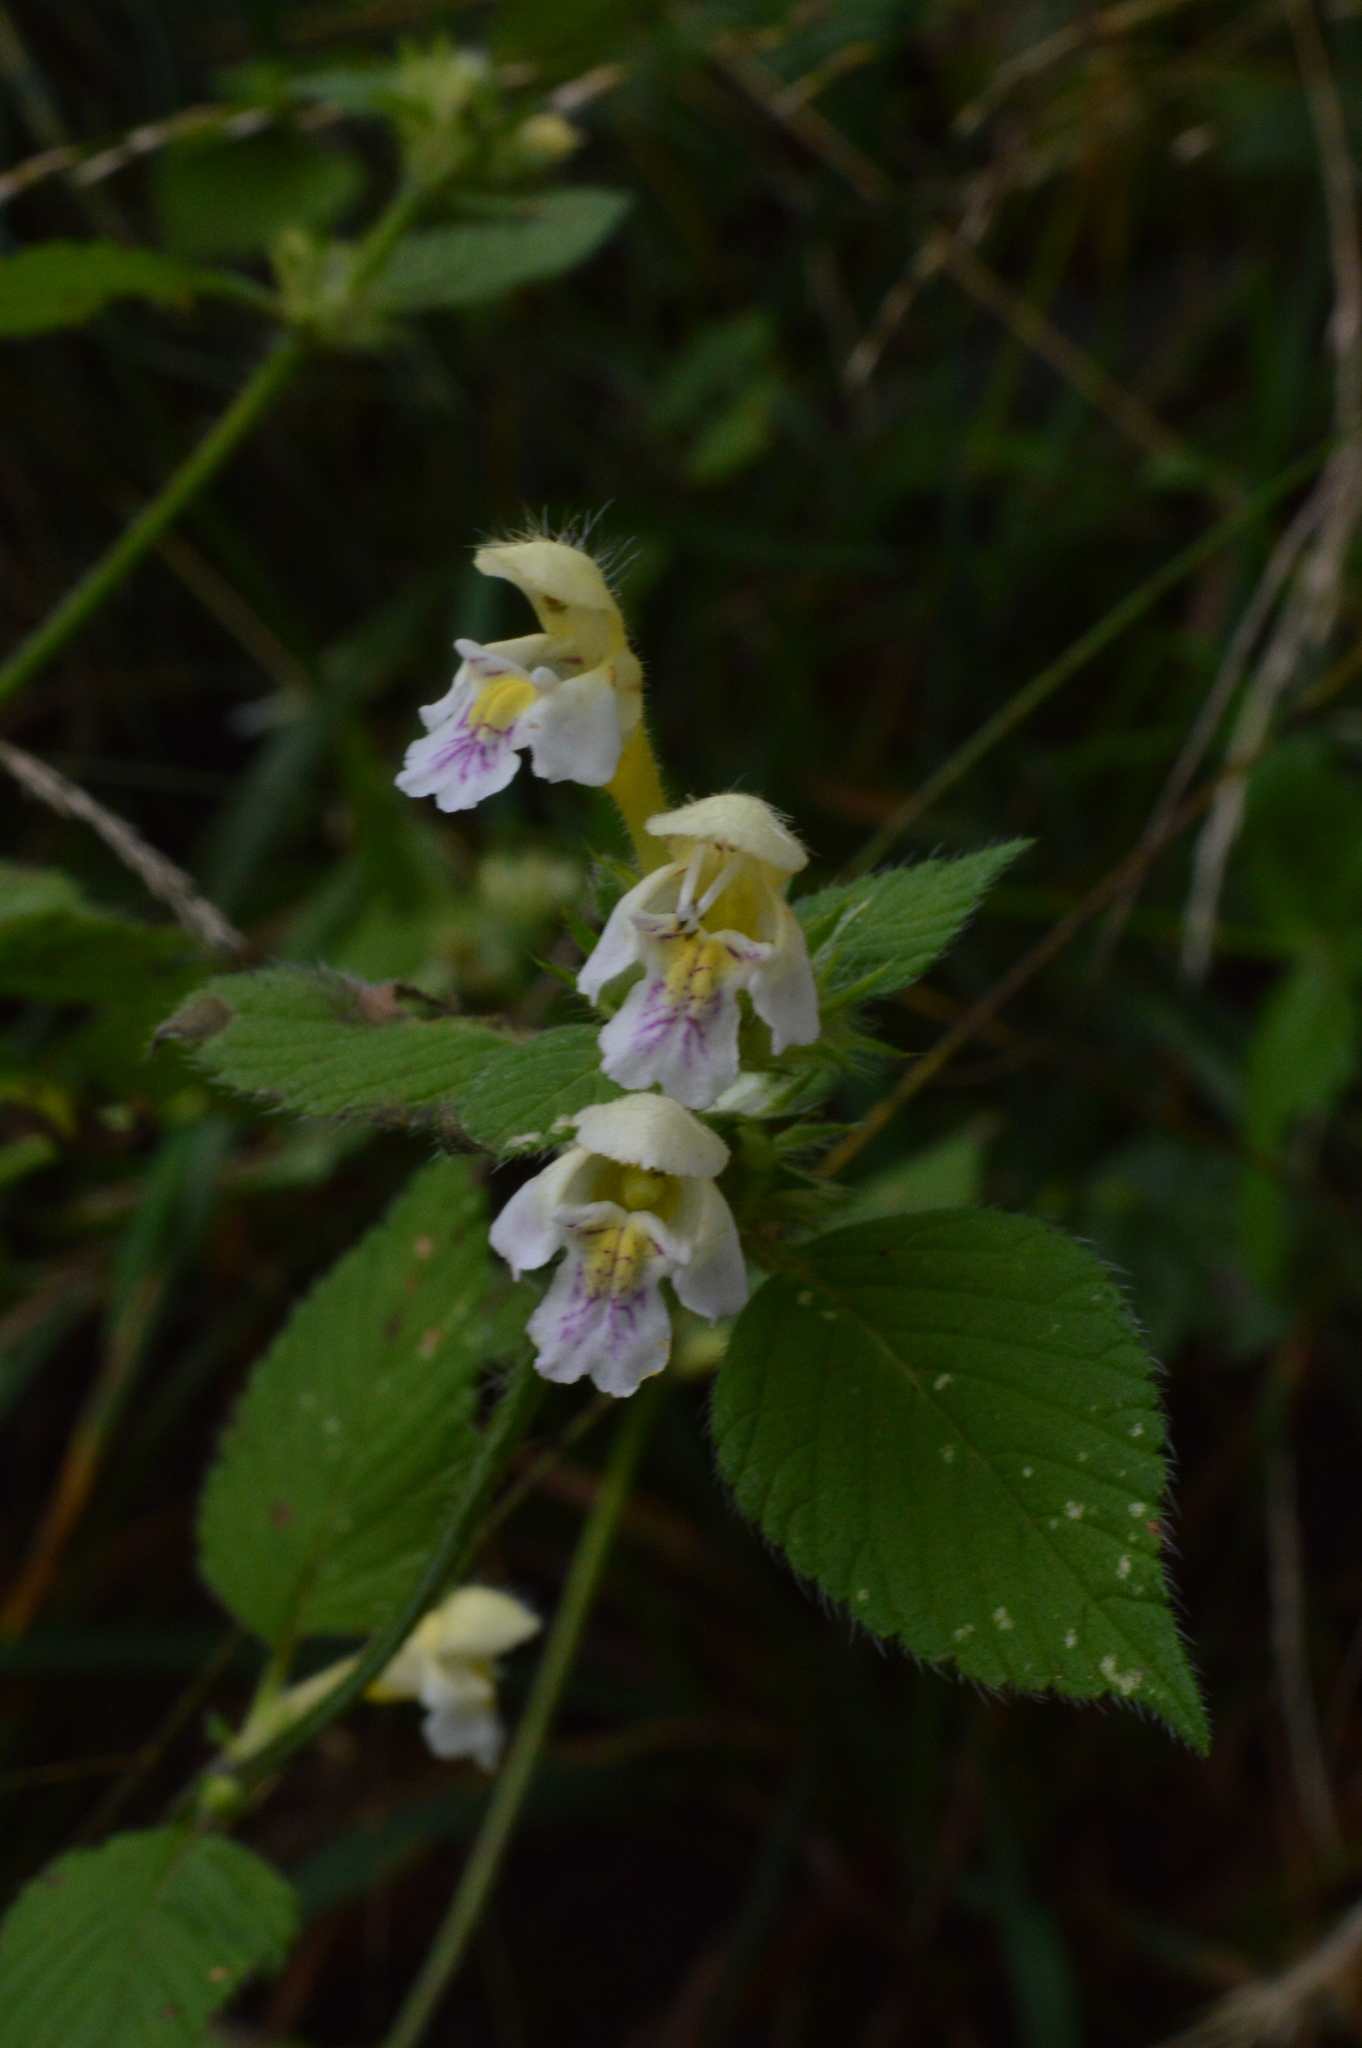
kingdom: Plantae
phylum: Tracheophyta
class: Magnoliopsida
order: Lamiales
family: Lamiaceae
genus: Galeopsis
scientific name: Galeopsis pubescens
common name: Downy hemp-nettle
